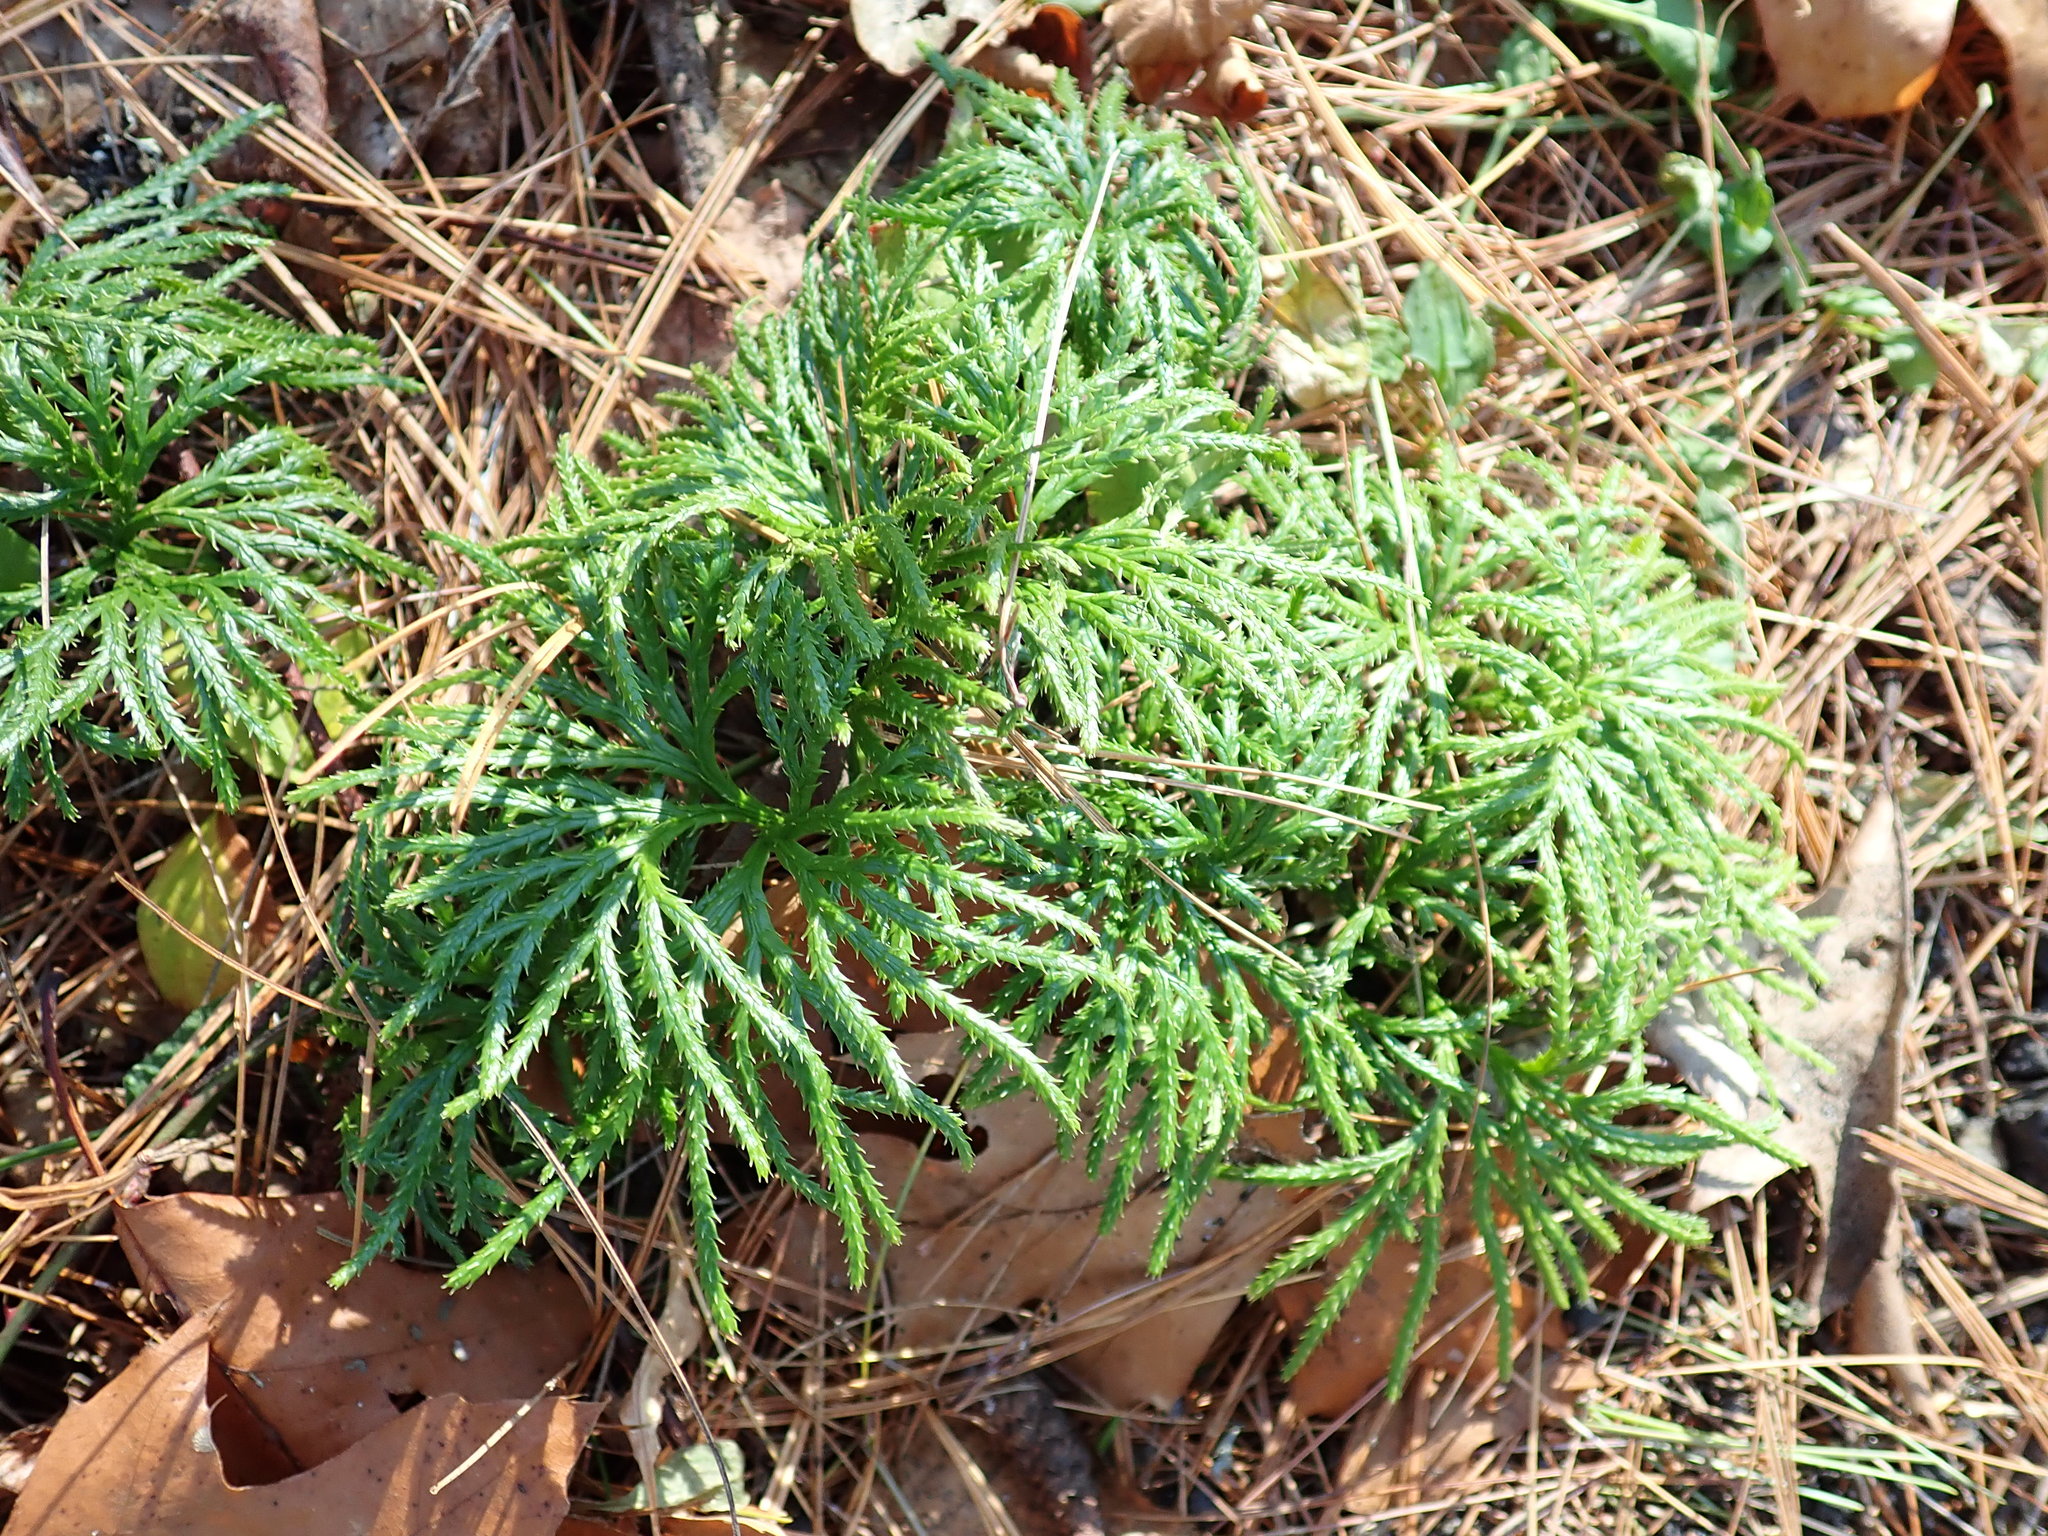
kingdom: Plantae
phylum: Tracheophyta
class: Lycopodiopsida
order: Lycopodiales
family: Lycopodiaceae
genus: Diphasiastrum
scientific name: Diphasiastrum digitatum
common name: Southern running-pine
